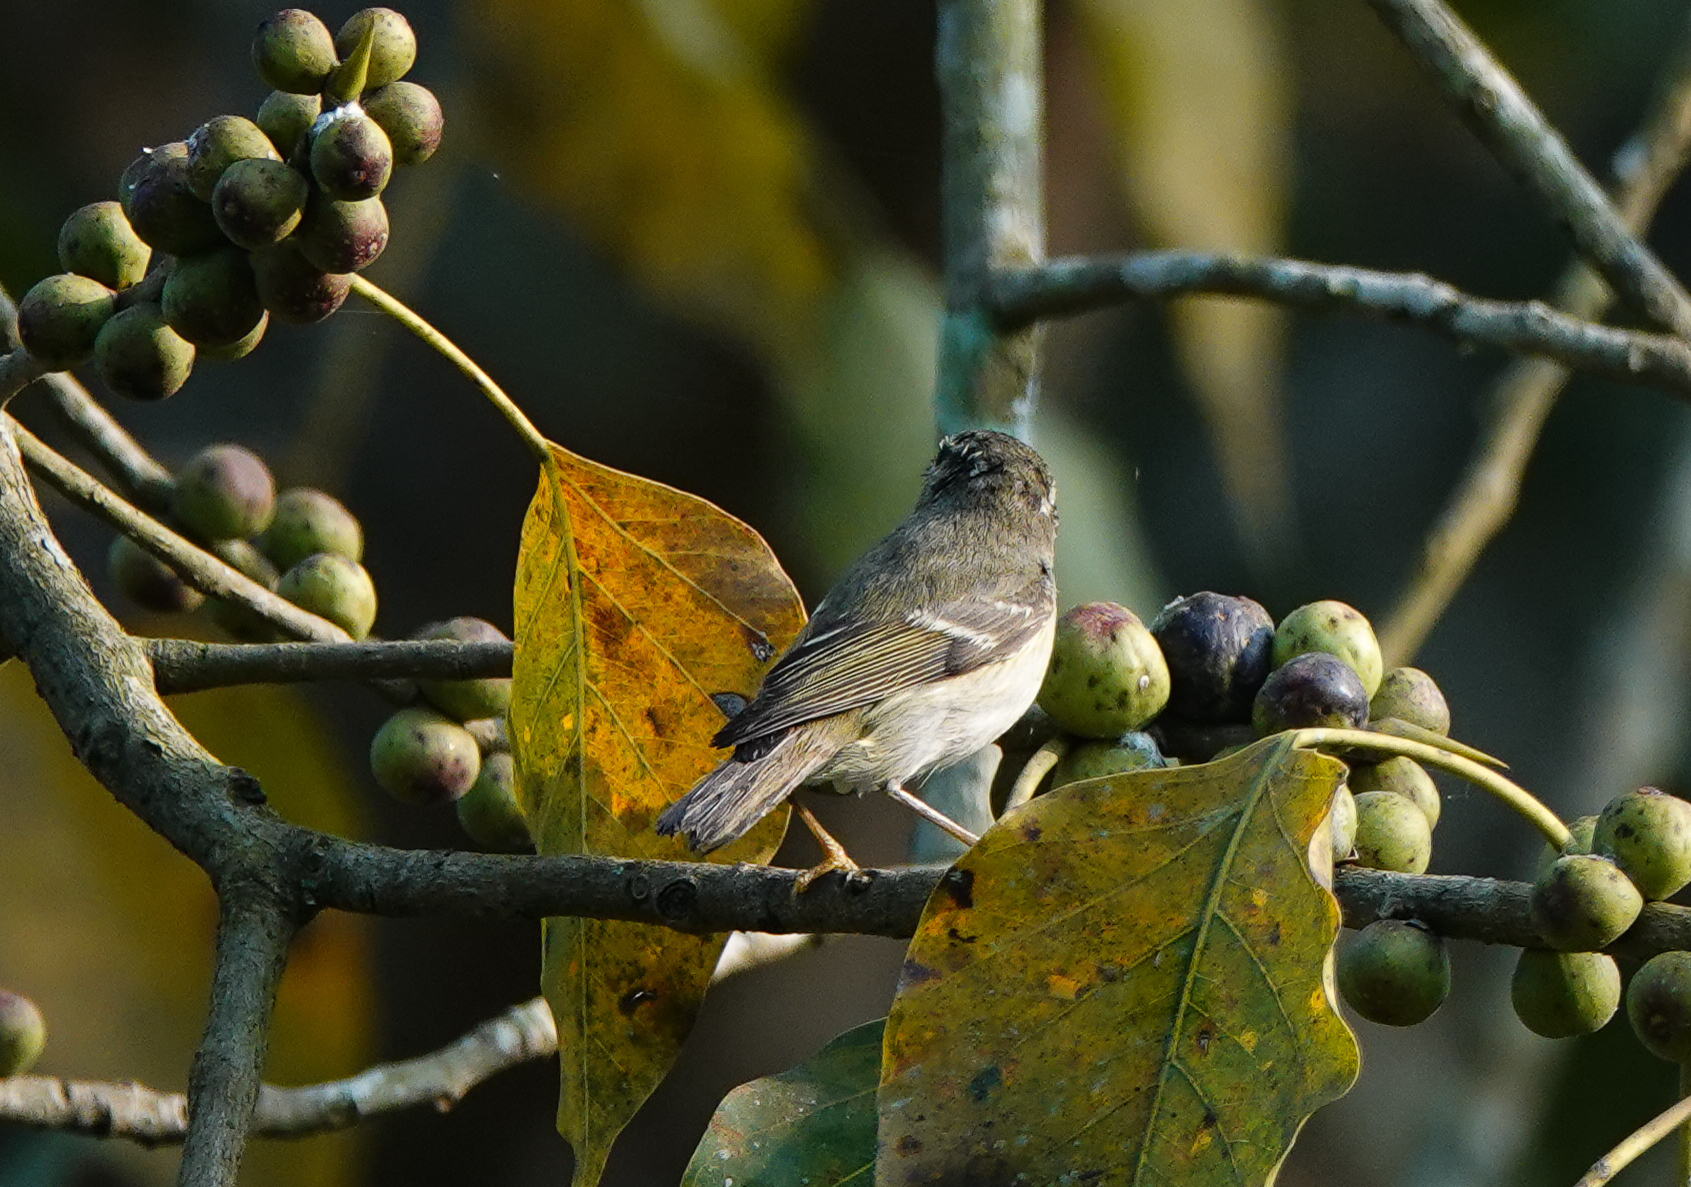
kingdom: Animalia
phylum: Chordata
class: Aves
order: Passeriformes
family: Phylloscopidae
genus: Phylloscopus
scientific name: Phylloscopus inornatus
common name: Yellow-browed warbler
